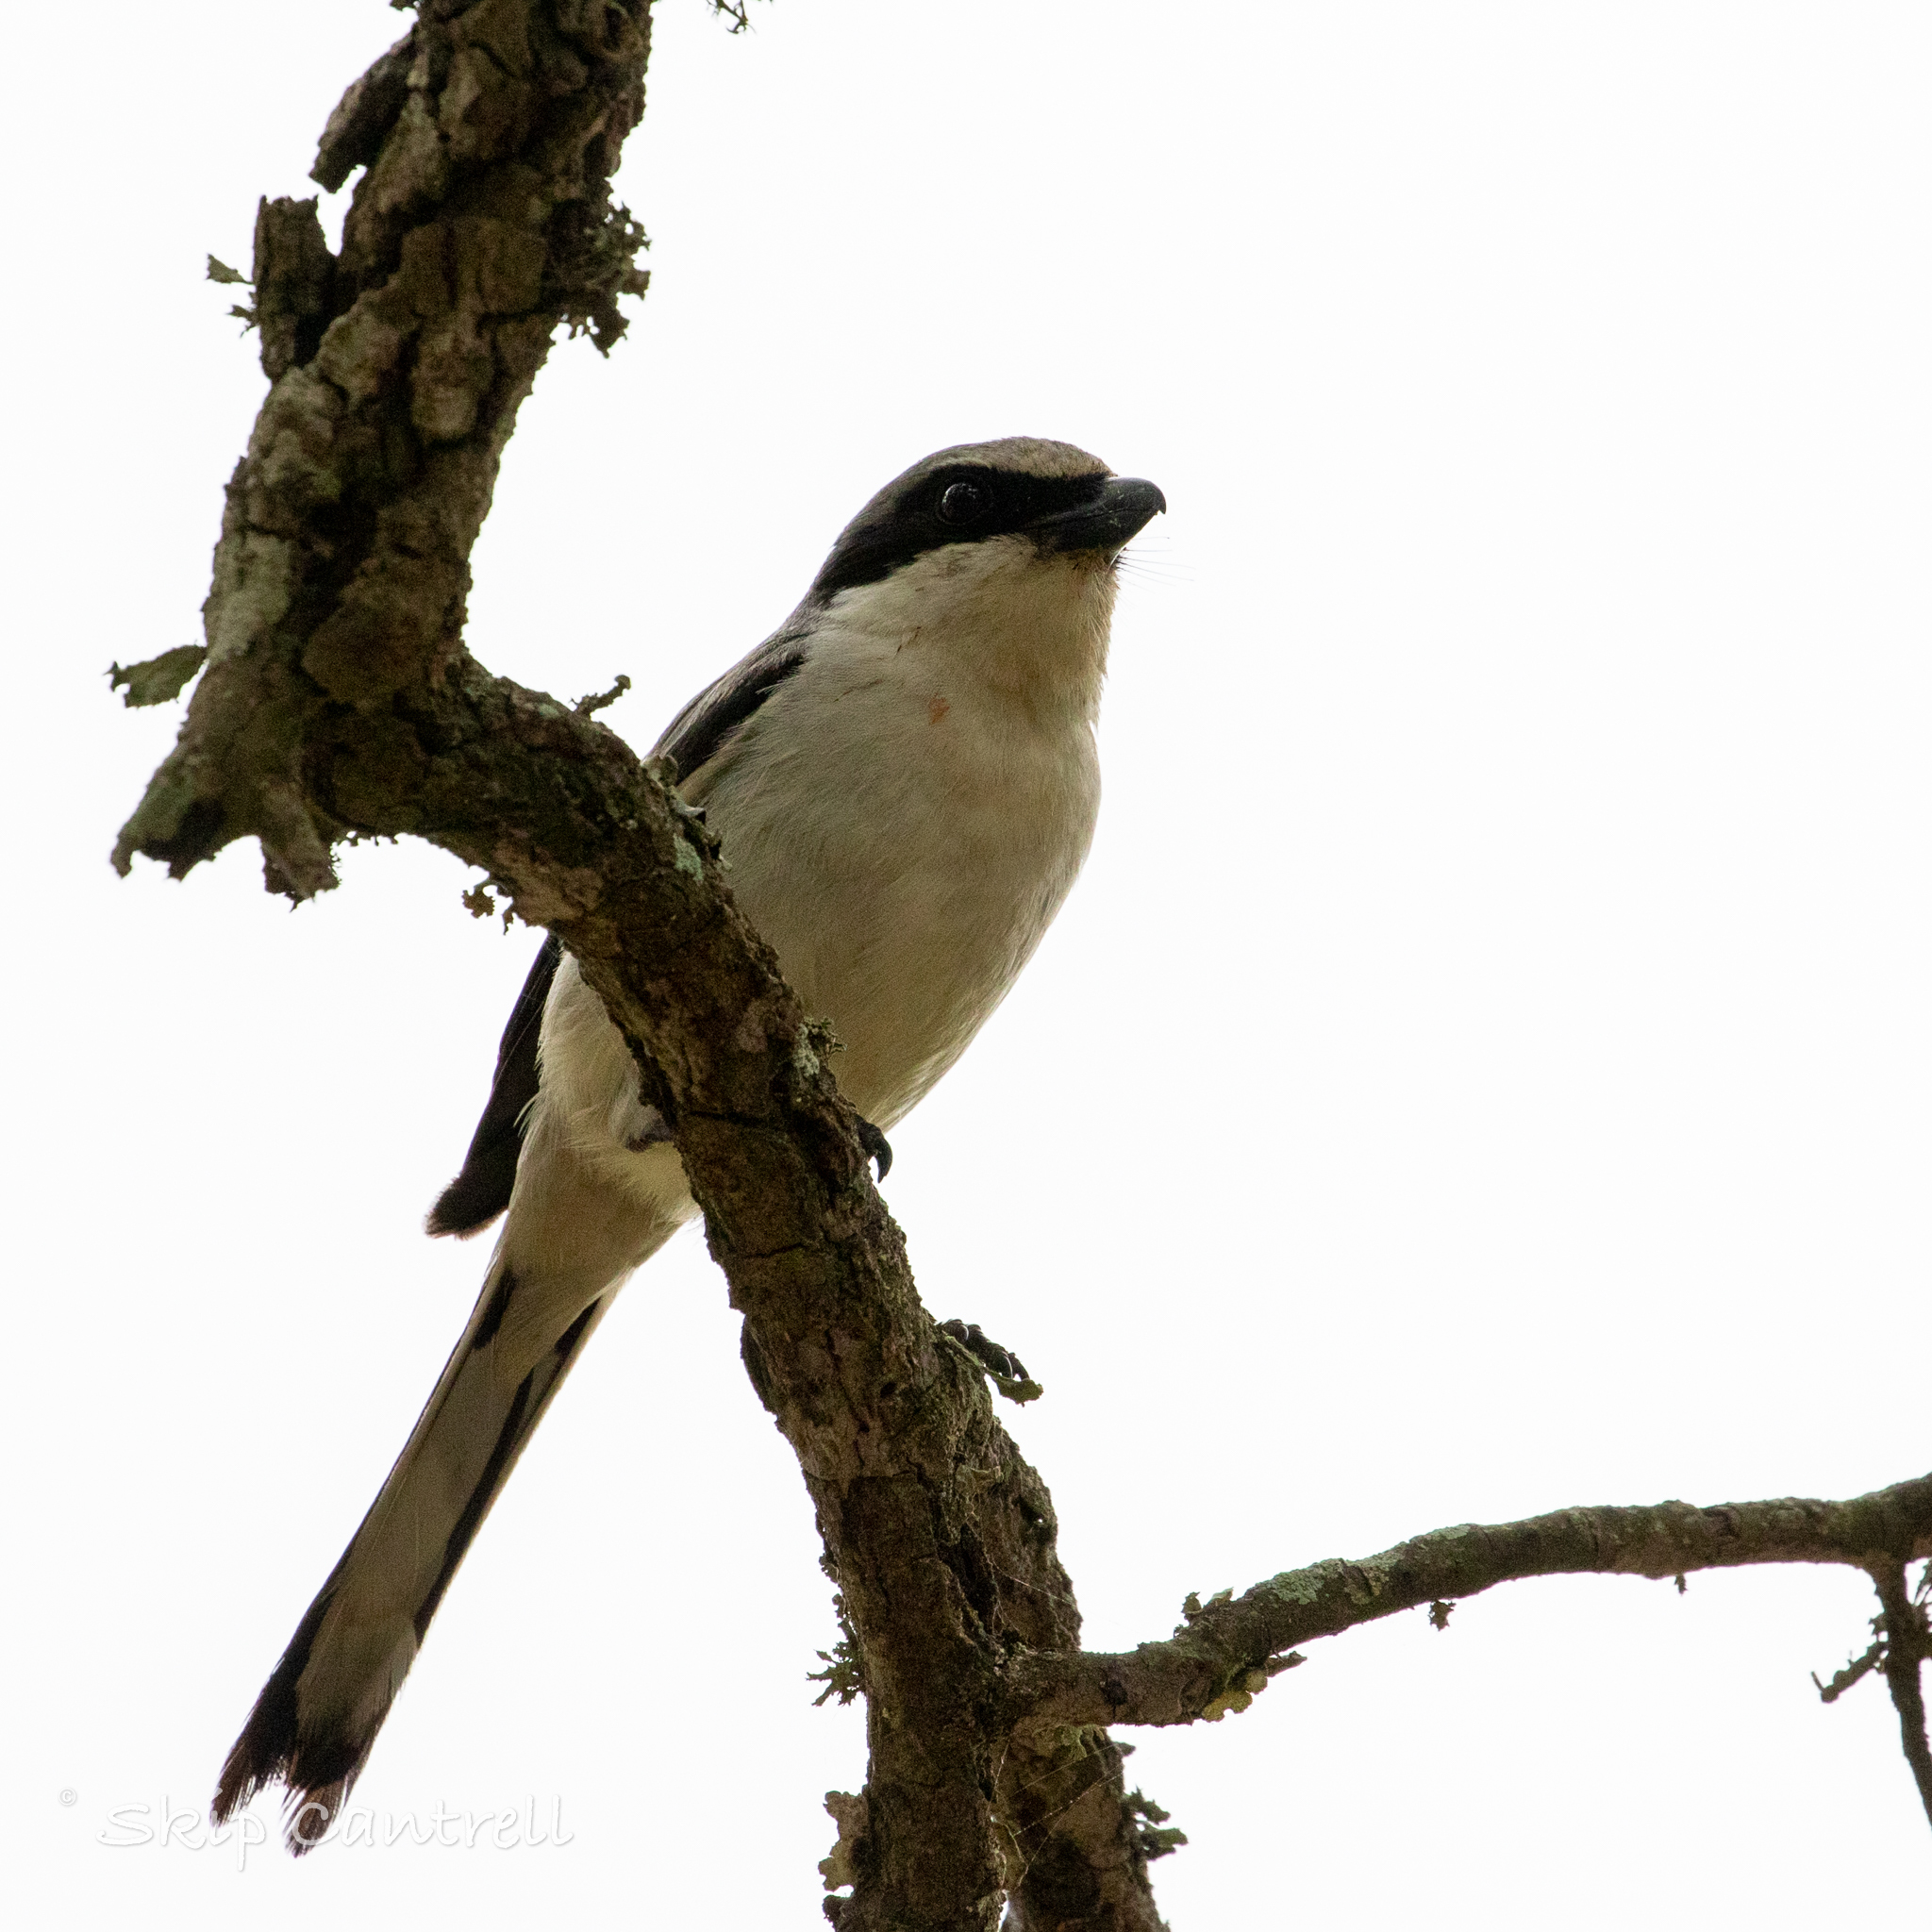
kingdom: Animalia
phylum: Chordata
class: Aves
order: Passeriformes
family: Laniidae
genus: Lanius
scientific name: Lanius ludovicianus
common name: Loggerhead shrike
